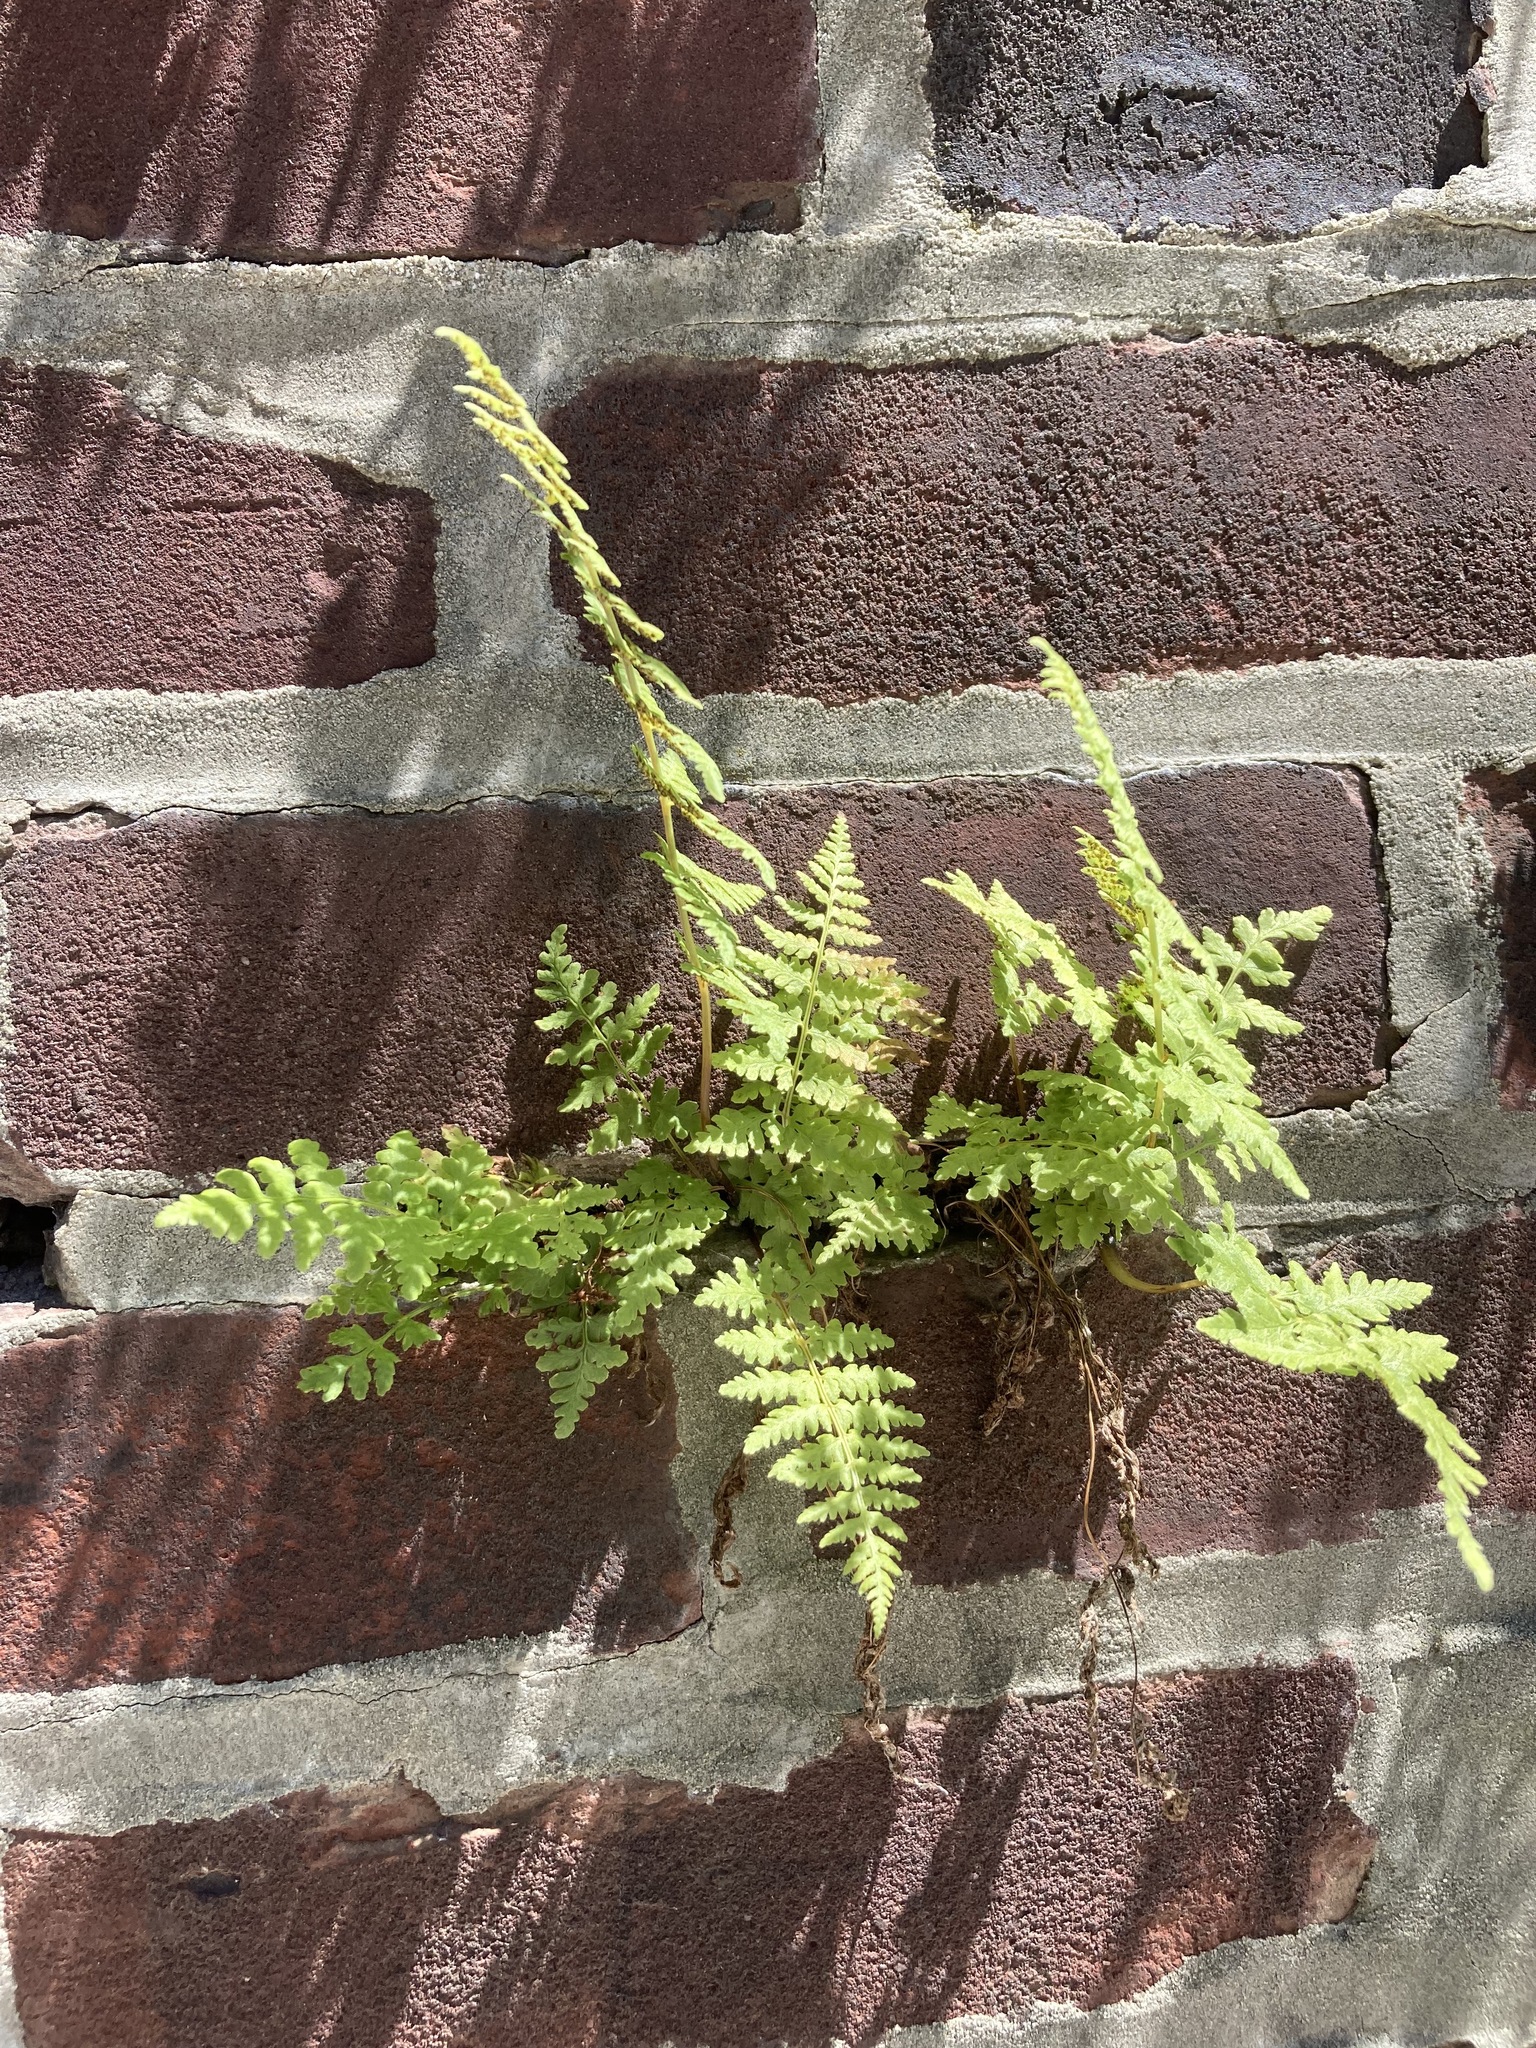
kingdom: Plantae
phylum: Tracheophyta
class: Polypodiopsida
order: Polypodiales
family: Woodsiaceae
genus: Physematium
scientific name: Physematium obtusum
